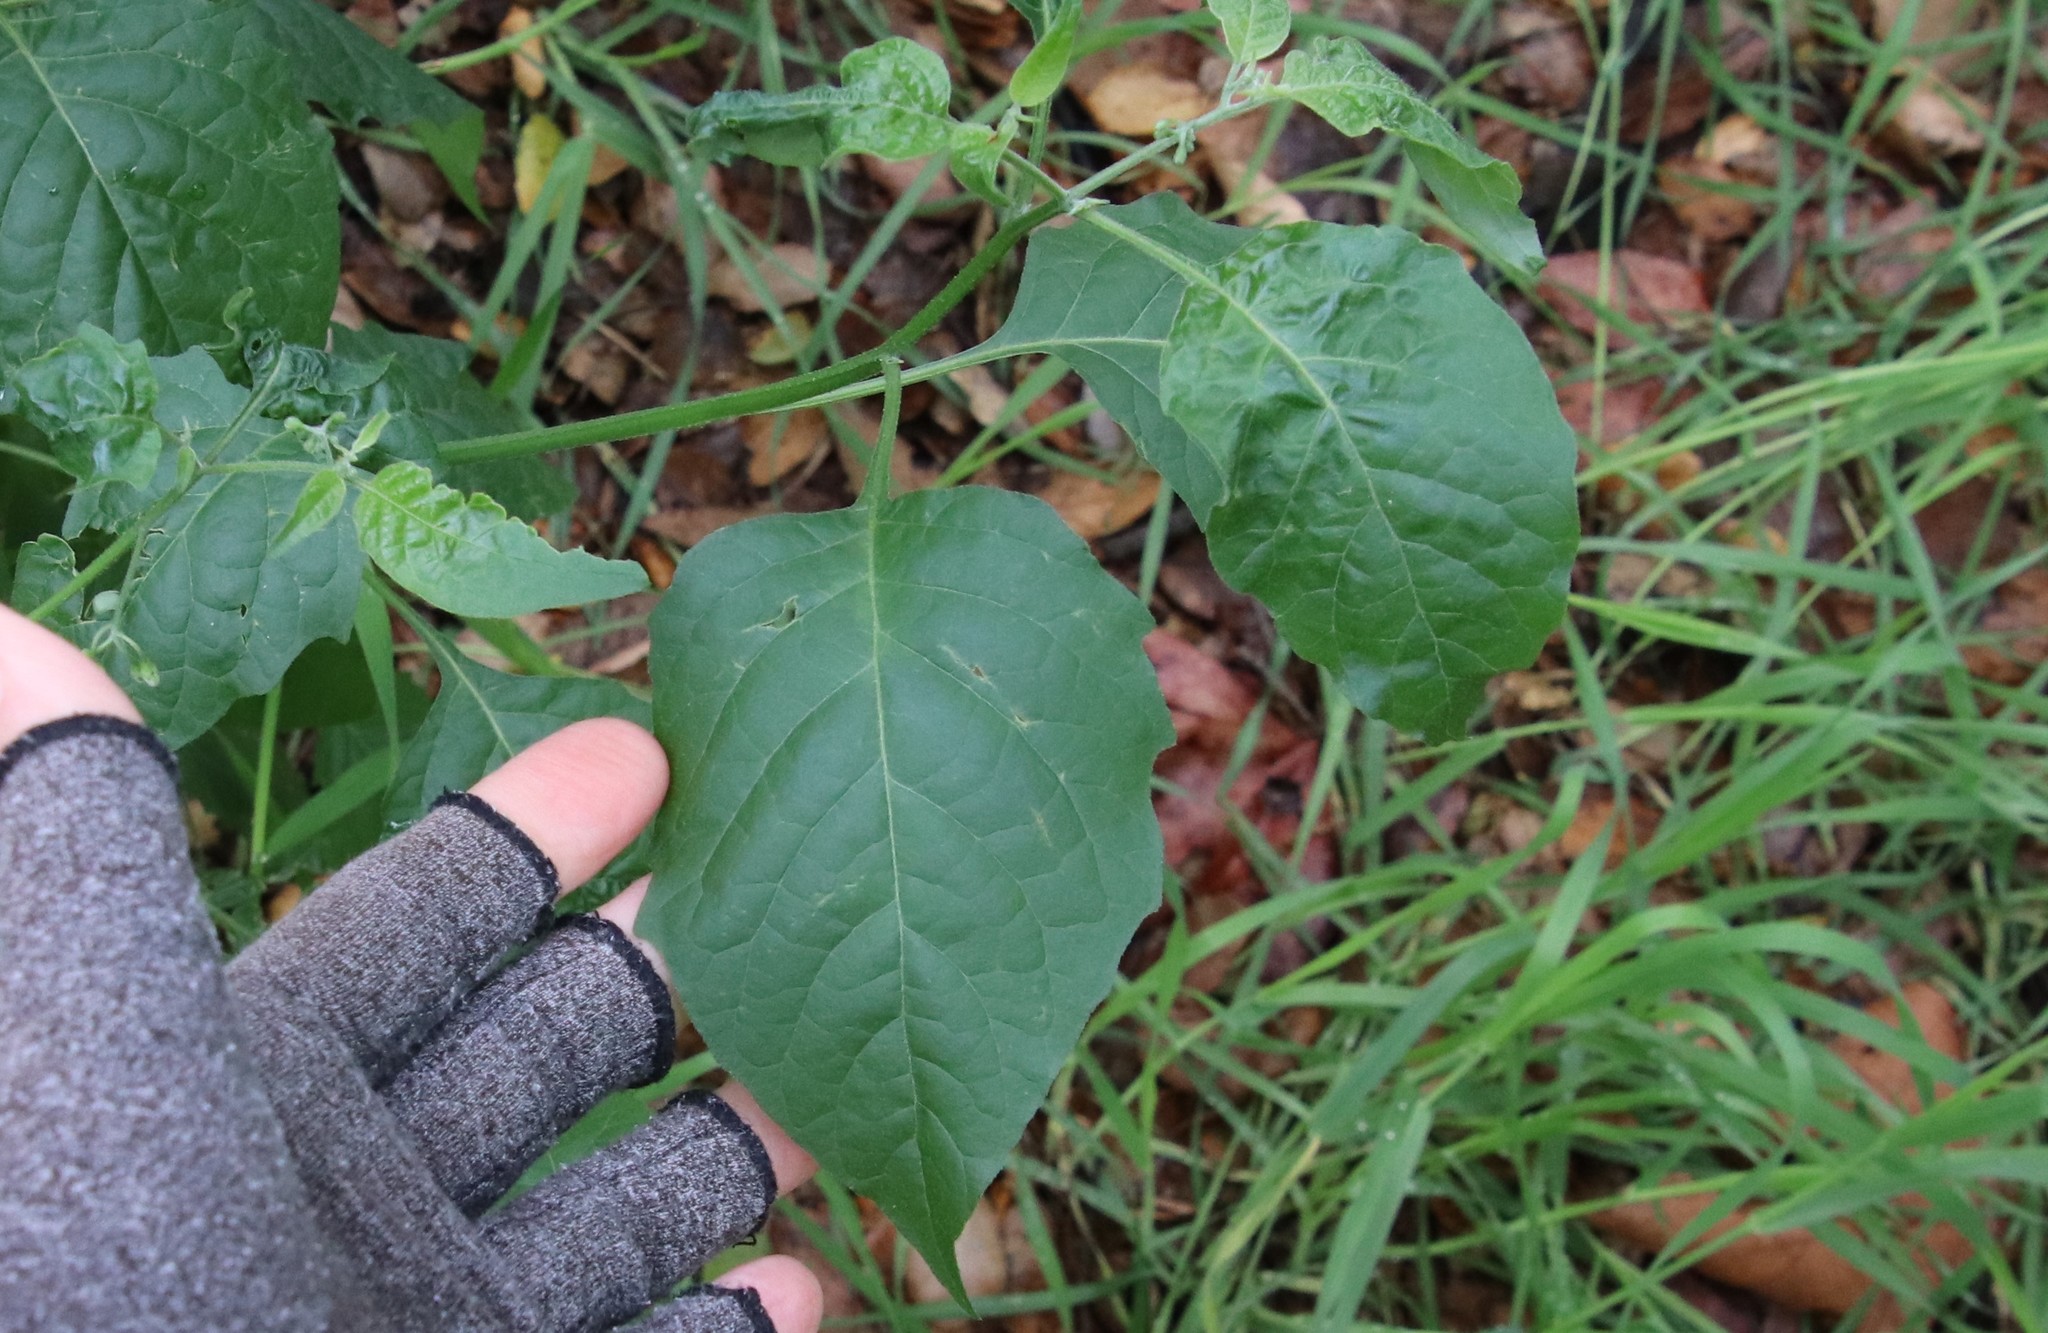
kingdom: Plantae
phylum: Tracheophyta
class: Magnoliopsida
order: Solanales
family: Solanaceae
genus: Solanum
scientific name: Solanum douglasii
